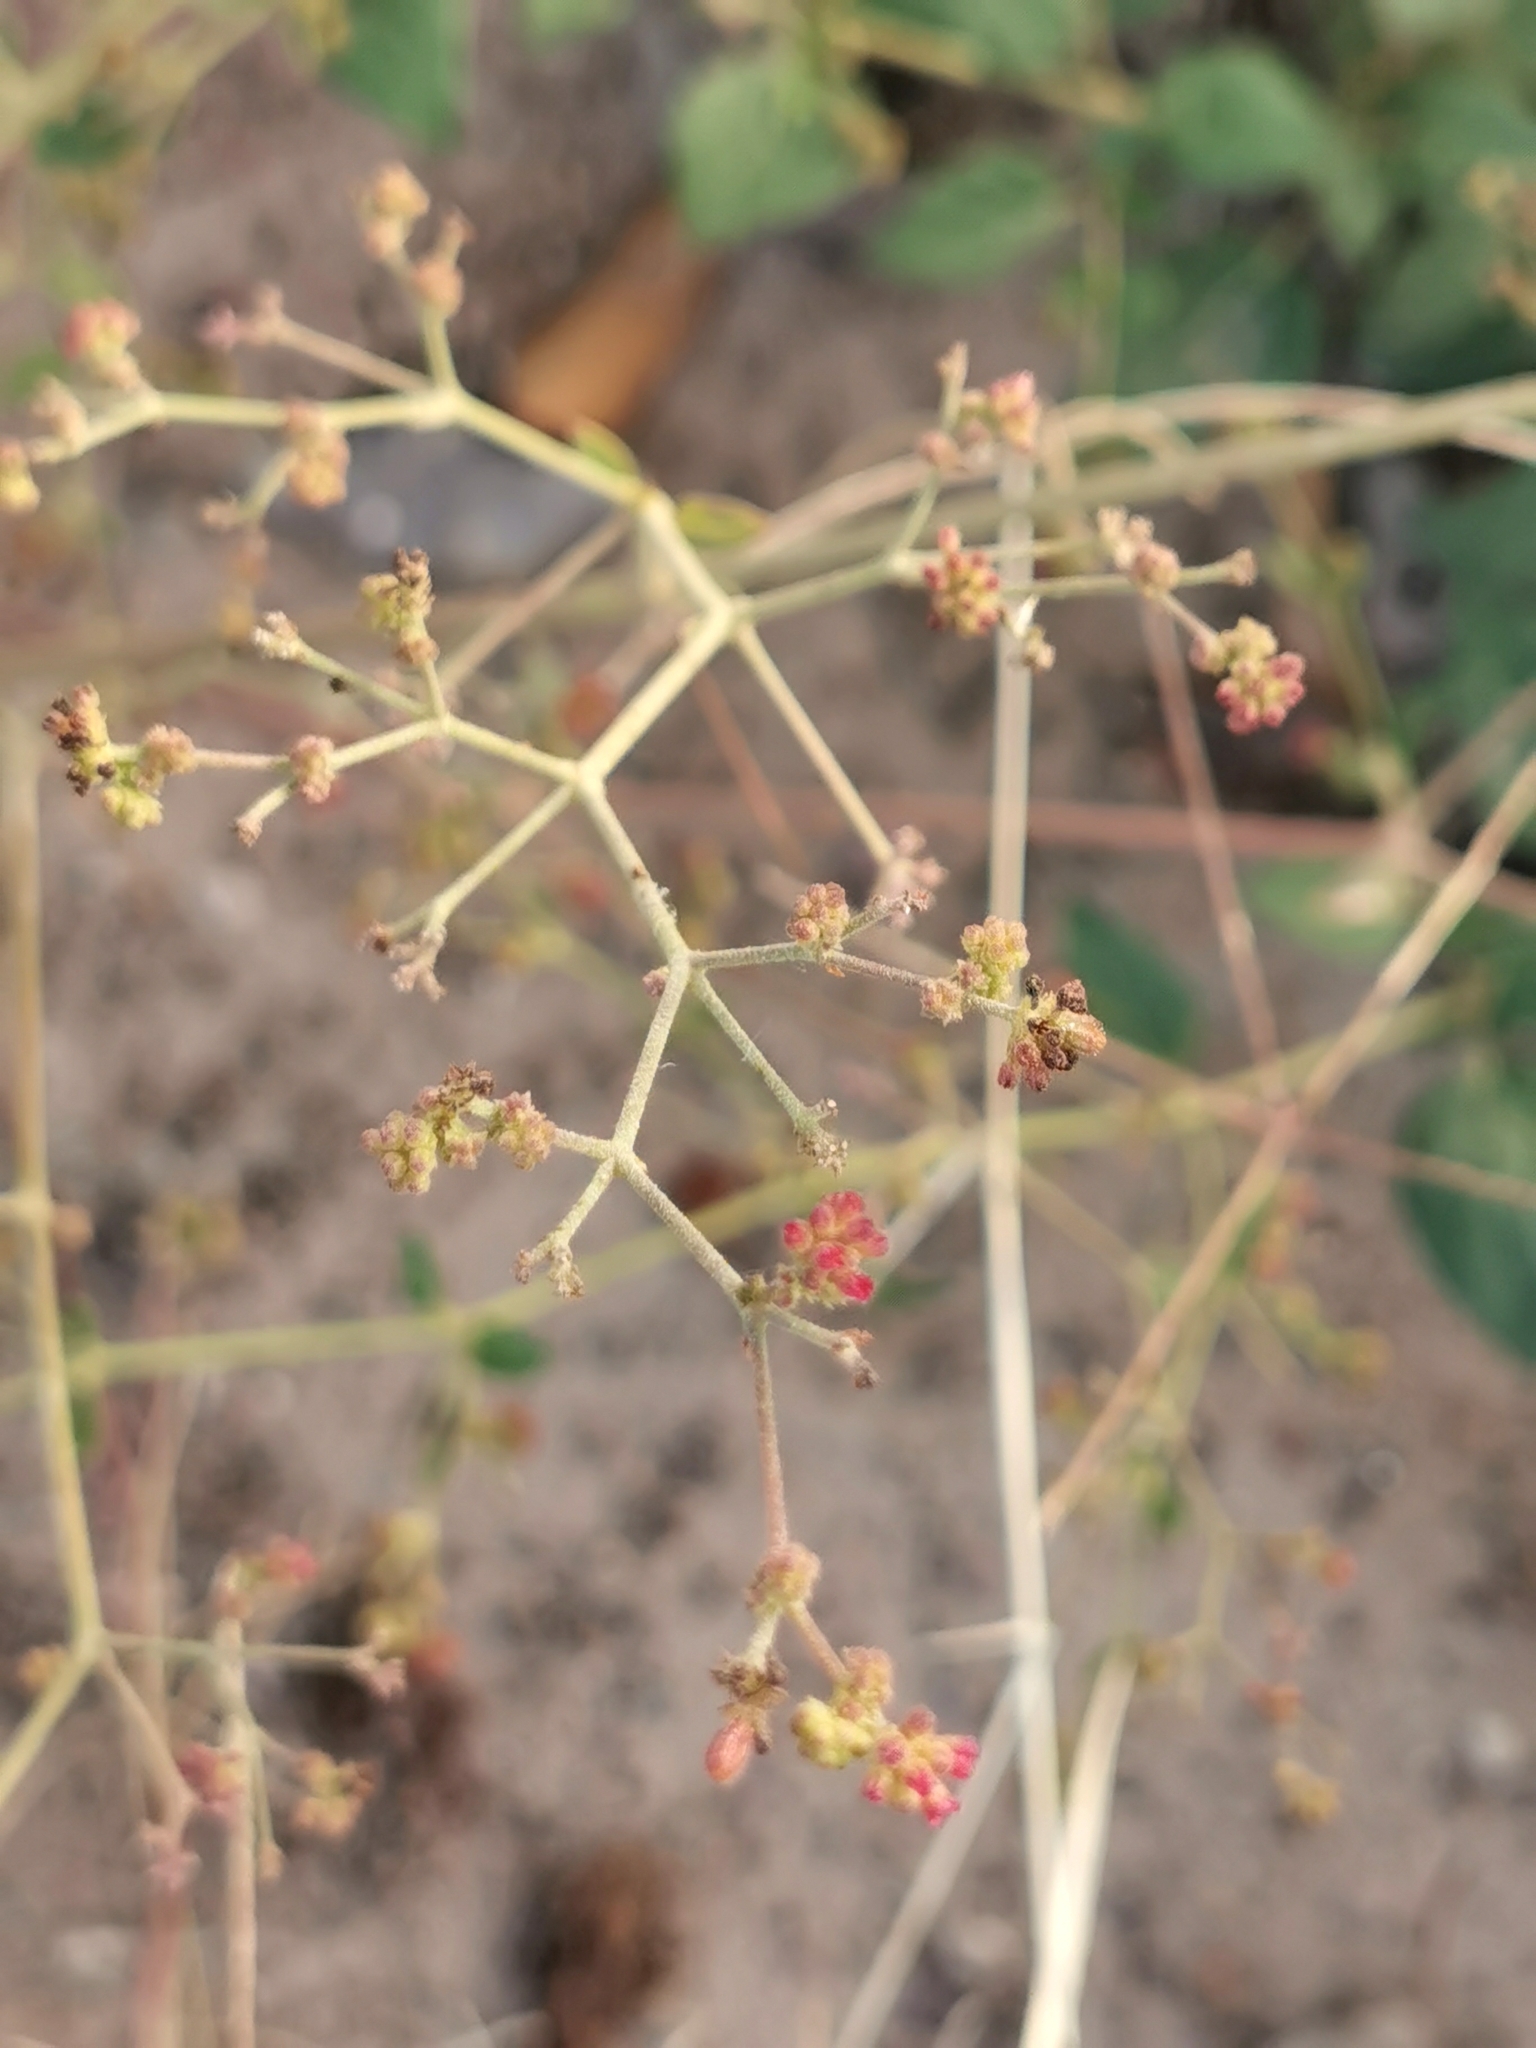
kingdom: Plantae
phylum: Tracheophyta
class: Magnoliopsida
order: Caryophyllales
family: Nyctaginaceae
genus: Boerhavia
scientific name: Boerhavia coccinea
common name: Scarlet spiderling
